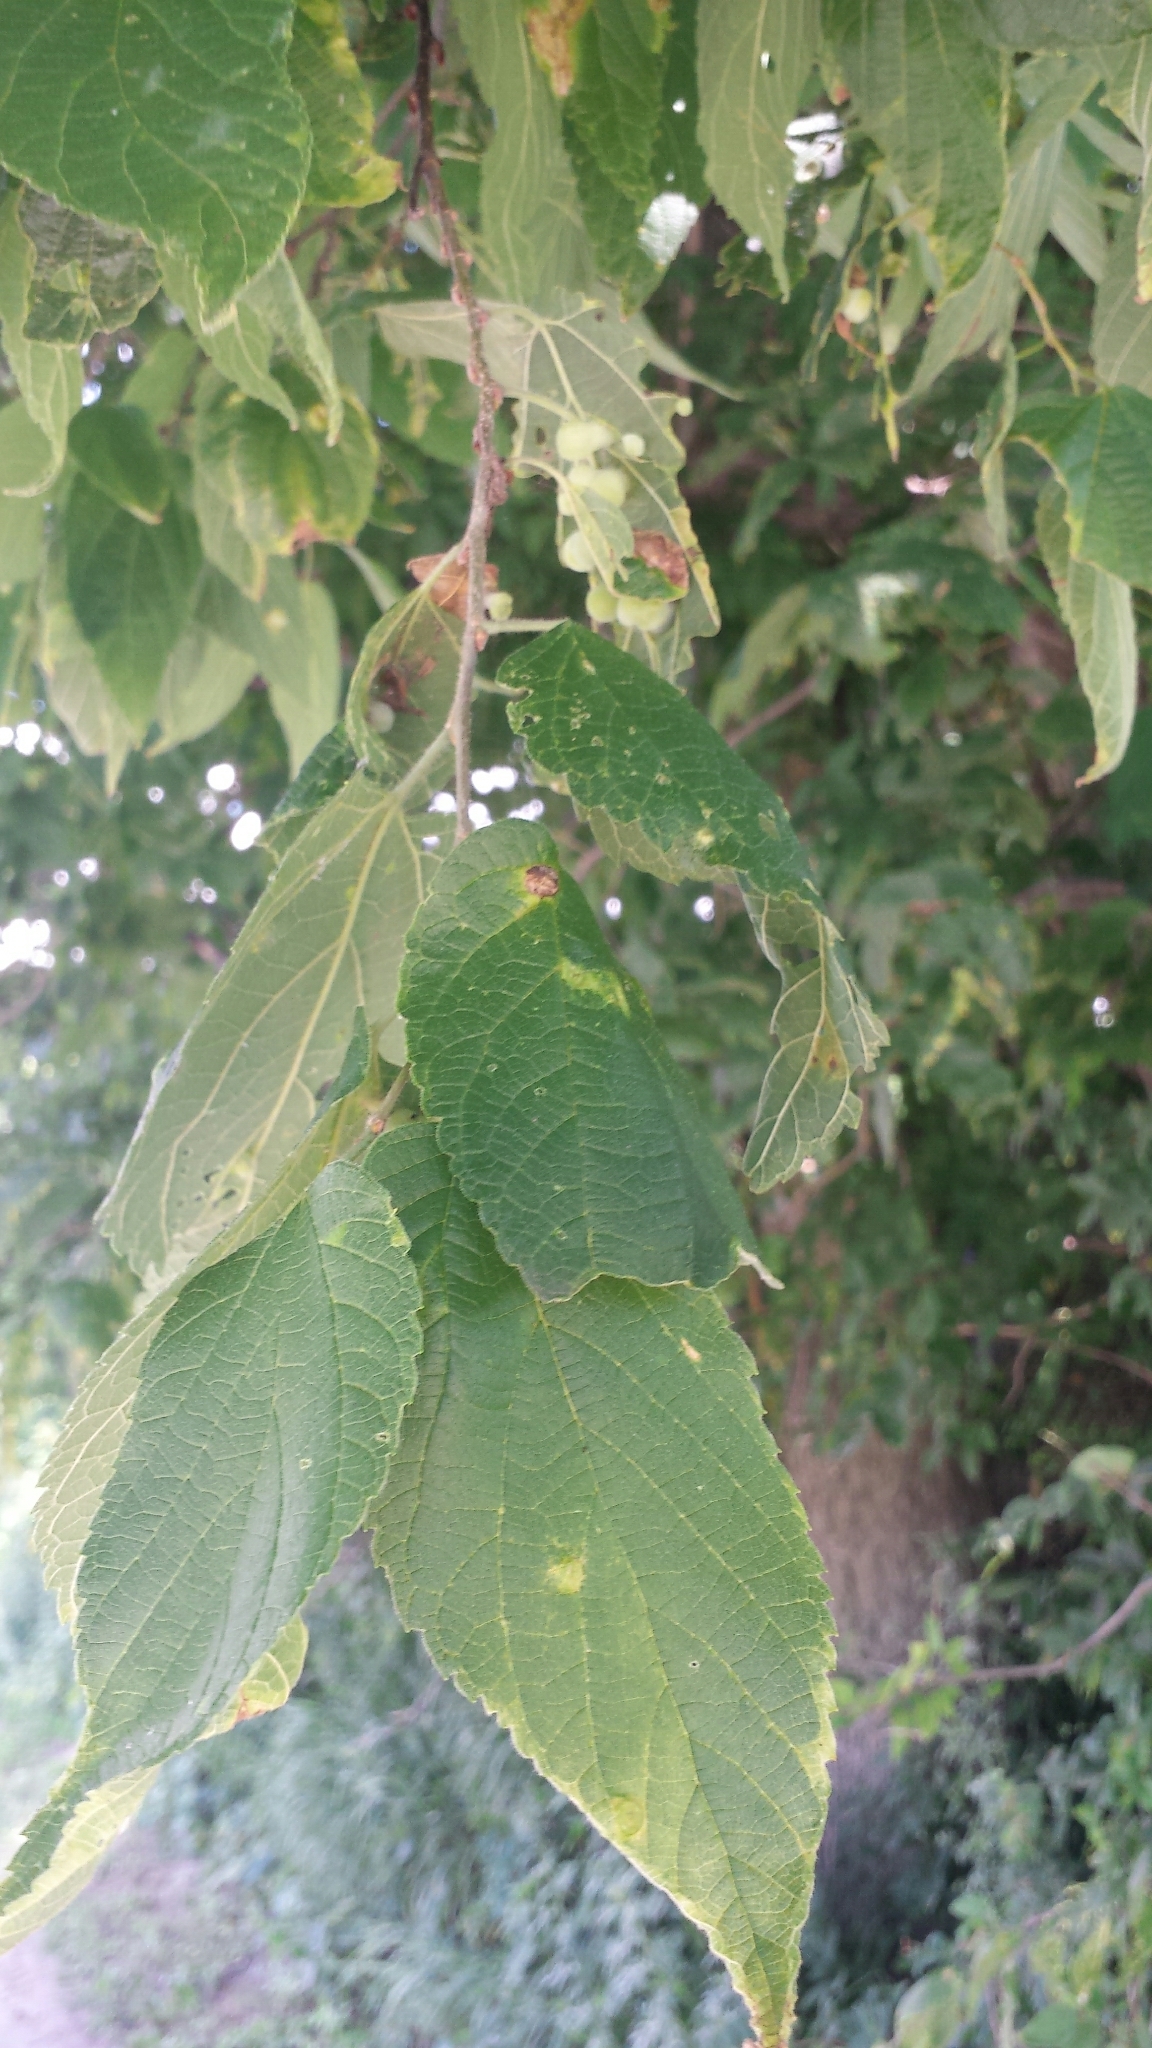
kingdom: Plantae
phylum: Tracheophyta
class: Magnoliopsida
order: Rosales
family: Cannabaceae
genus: Celtis
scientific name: Celtis occidentalis
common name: Common hackberry
